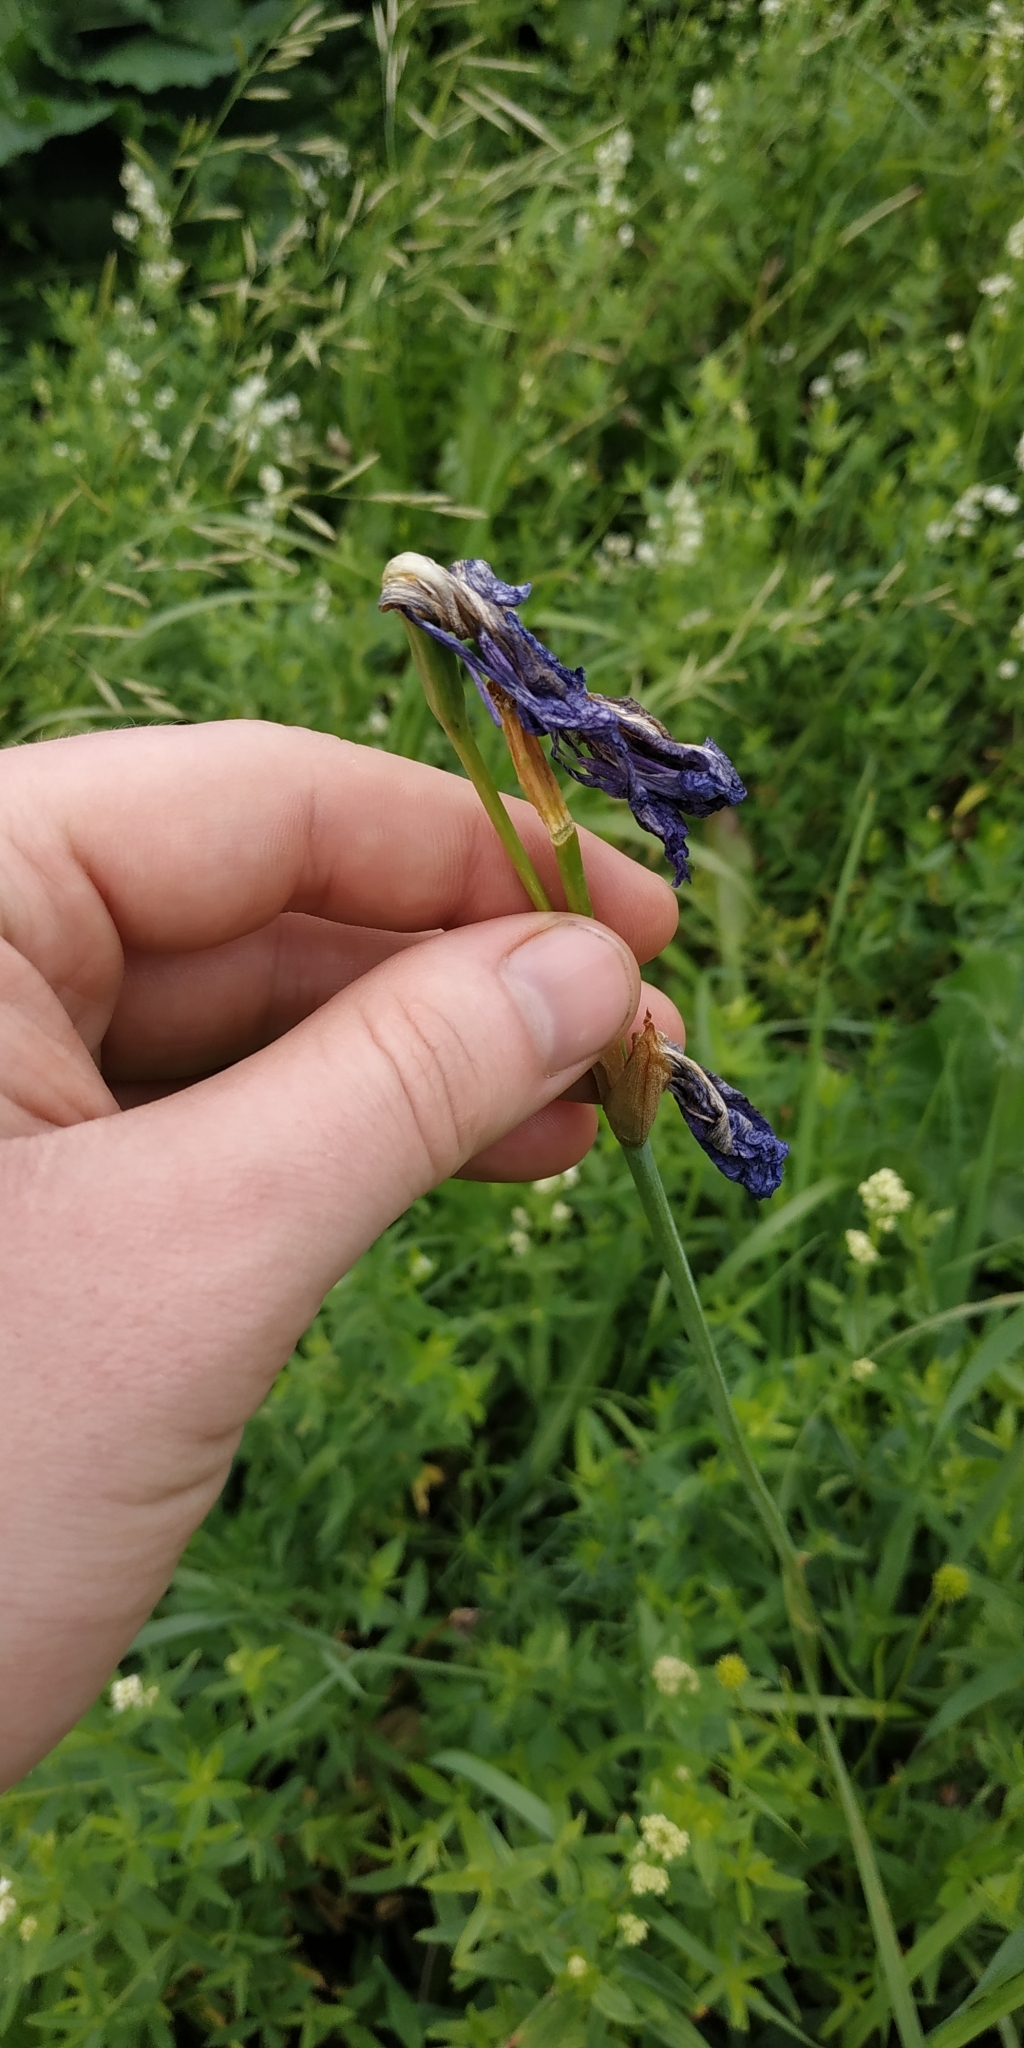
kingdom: Plantae
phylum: Tracheophyta
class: Liliopsida
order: Asparagales
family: Iridaceae
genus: Iris
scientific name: Iris sibirica
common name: Siberian iris
